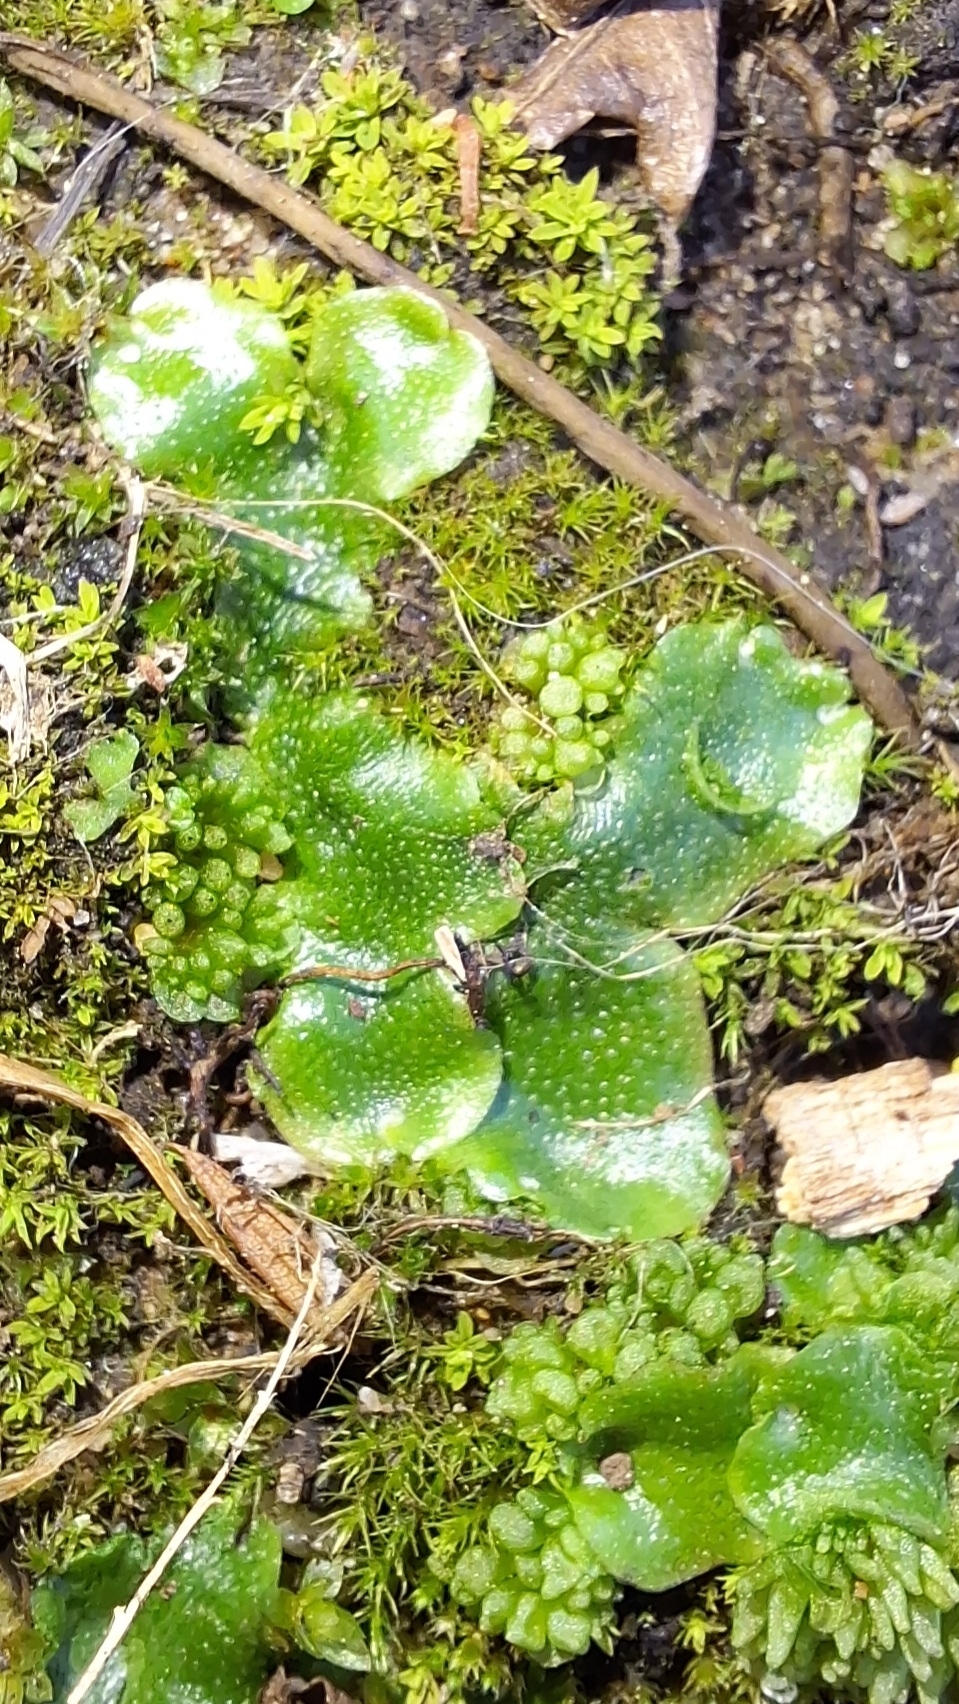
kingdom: Plantae
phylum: Marchantiophyta
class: Marchantiopsida
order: Lunulariales
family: Lunulariaceae
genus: Lunularia
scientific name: Lunularia cruciata
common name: Crescent-cup liverwort
